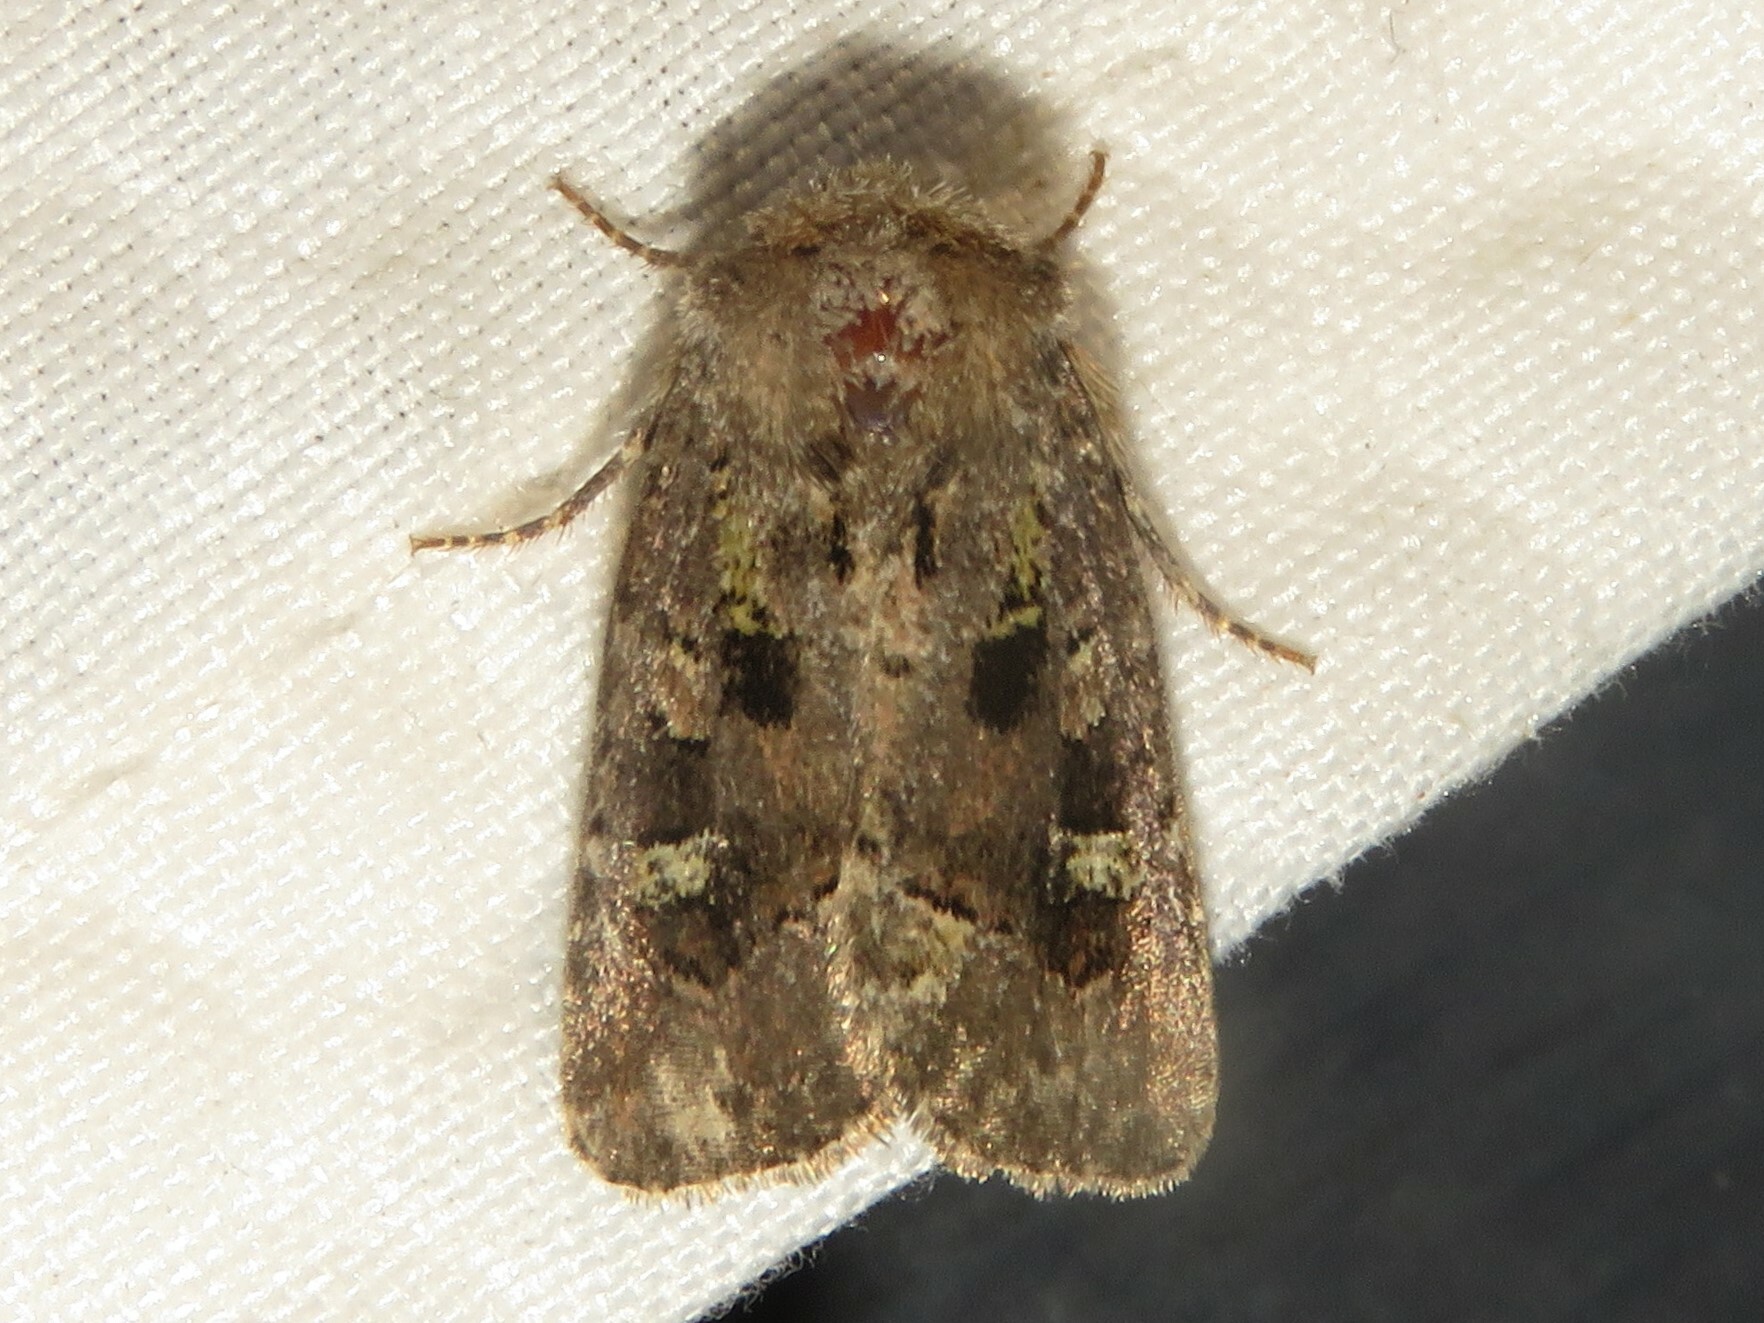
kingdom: Animalia
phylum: Arthropoda
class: Insecta
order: Lepidoptera
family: Noctuidae
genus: Lacinipolia
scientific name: Lacinipolia renigera
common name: Kidney-spotted minor
